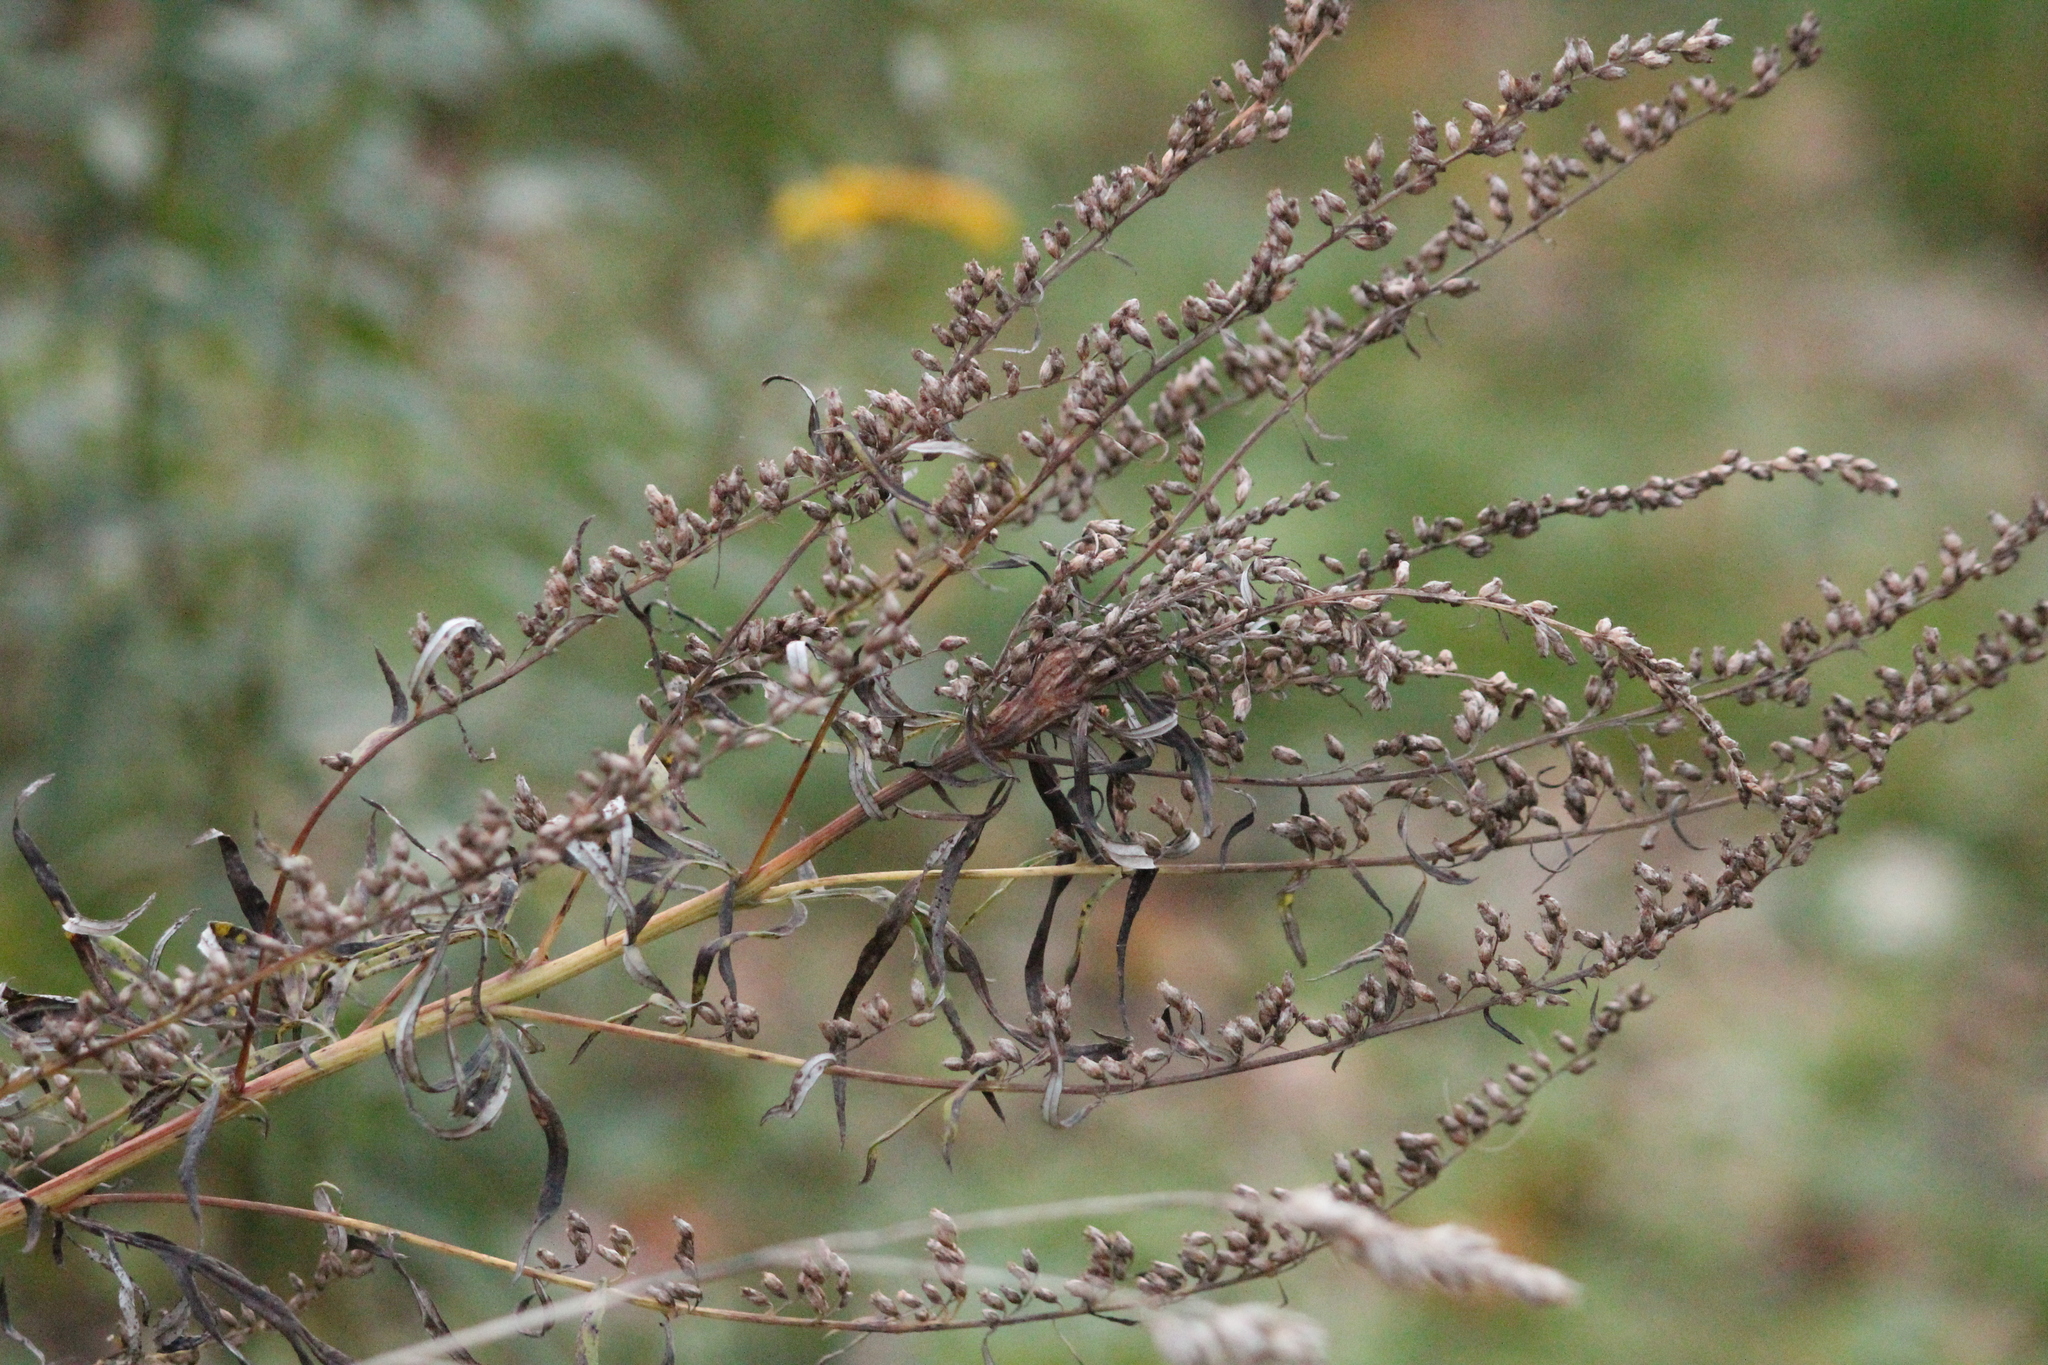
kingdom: Plantae
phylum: Tracheophyta
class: Magnoliopsida
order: Asterales
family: Asteraceae
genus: Artemisia
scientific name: Artemisia vulgaris
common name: Mugwort
